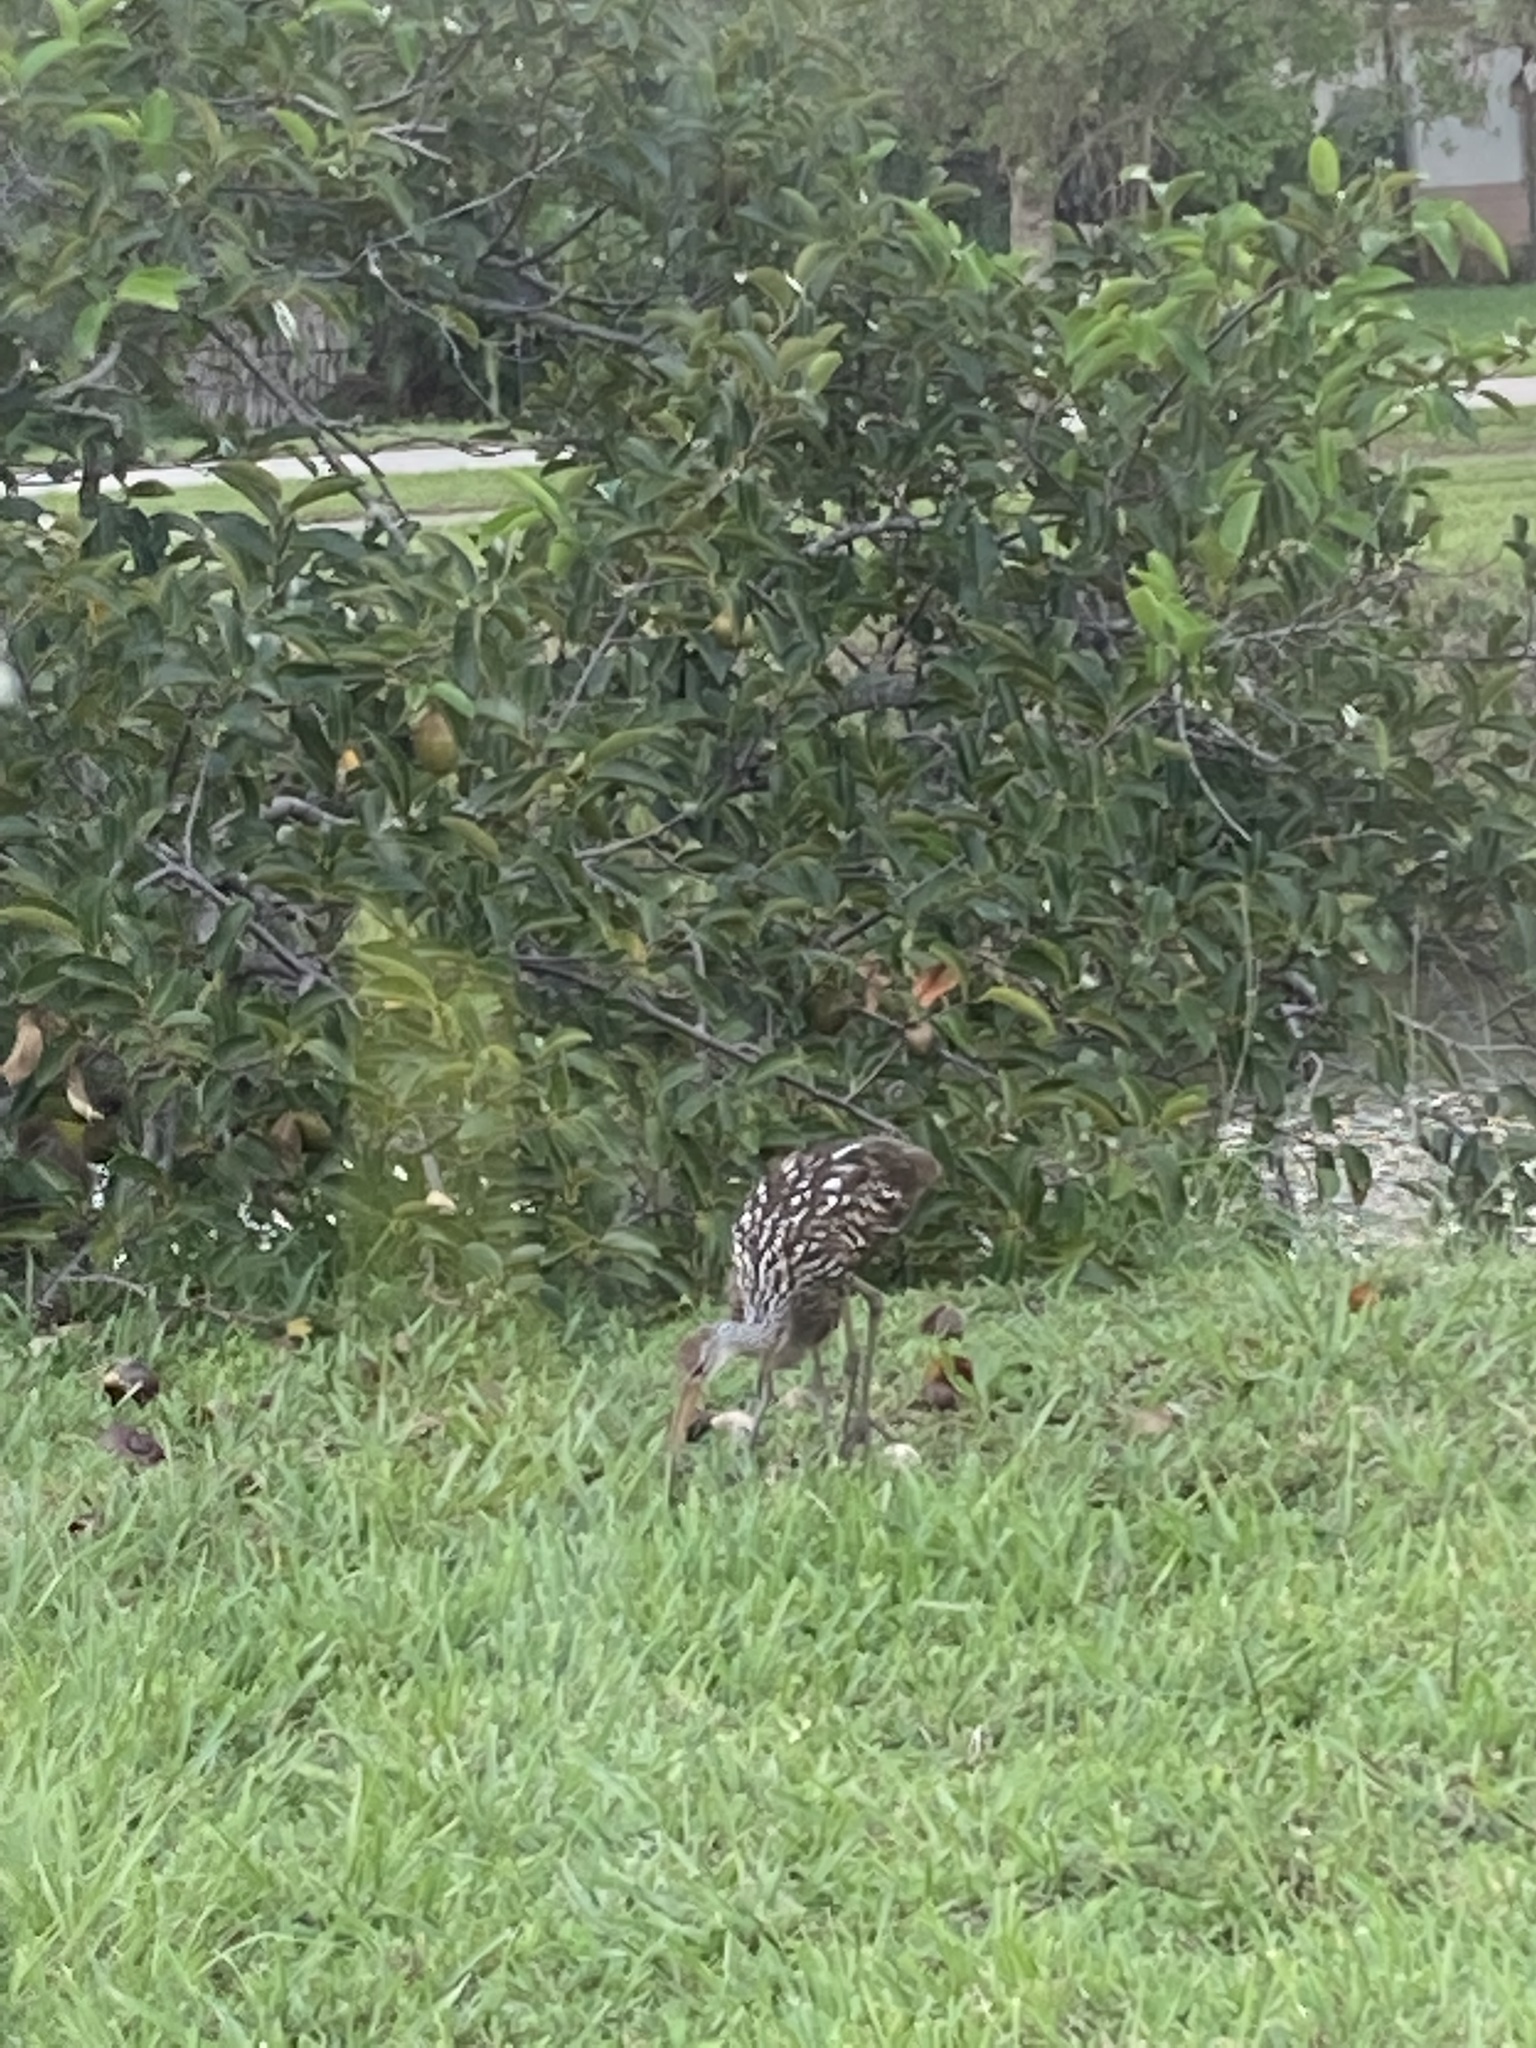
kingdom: Animalia
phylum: Chordata
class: Aves
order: Gruiformes
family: Aramidae
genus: Aramus
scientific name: Aramus guarauna
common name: Limpkin
